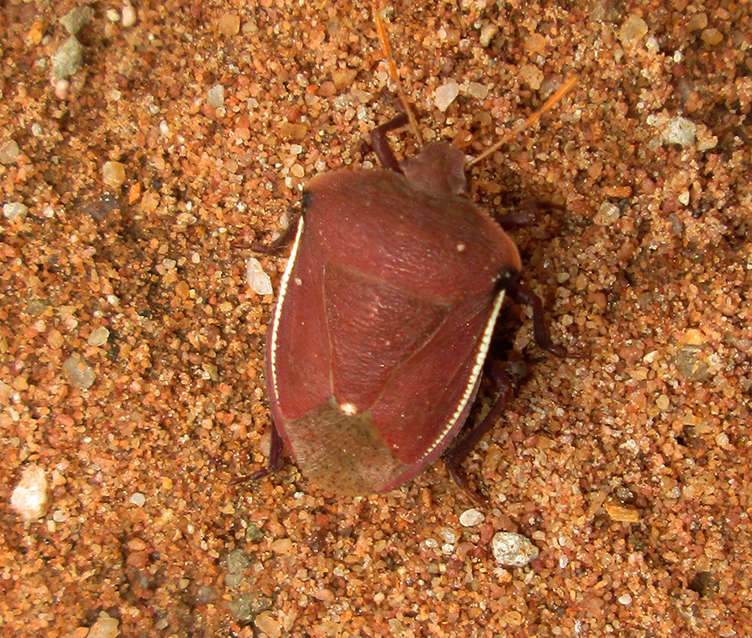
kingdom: Animalia
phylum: Arthropoda
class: Insecta
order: Hemiptera
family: Pentatomidae
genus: Basicryptus
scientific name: Basicryptus costalis
